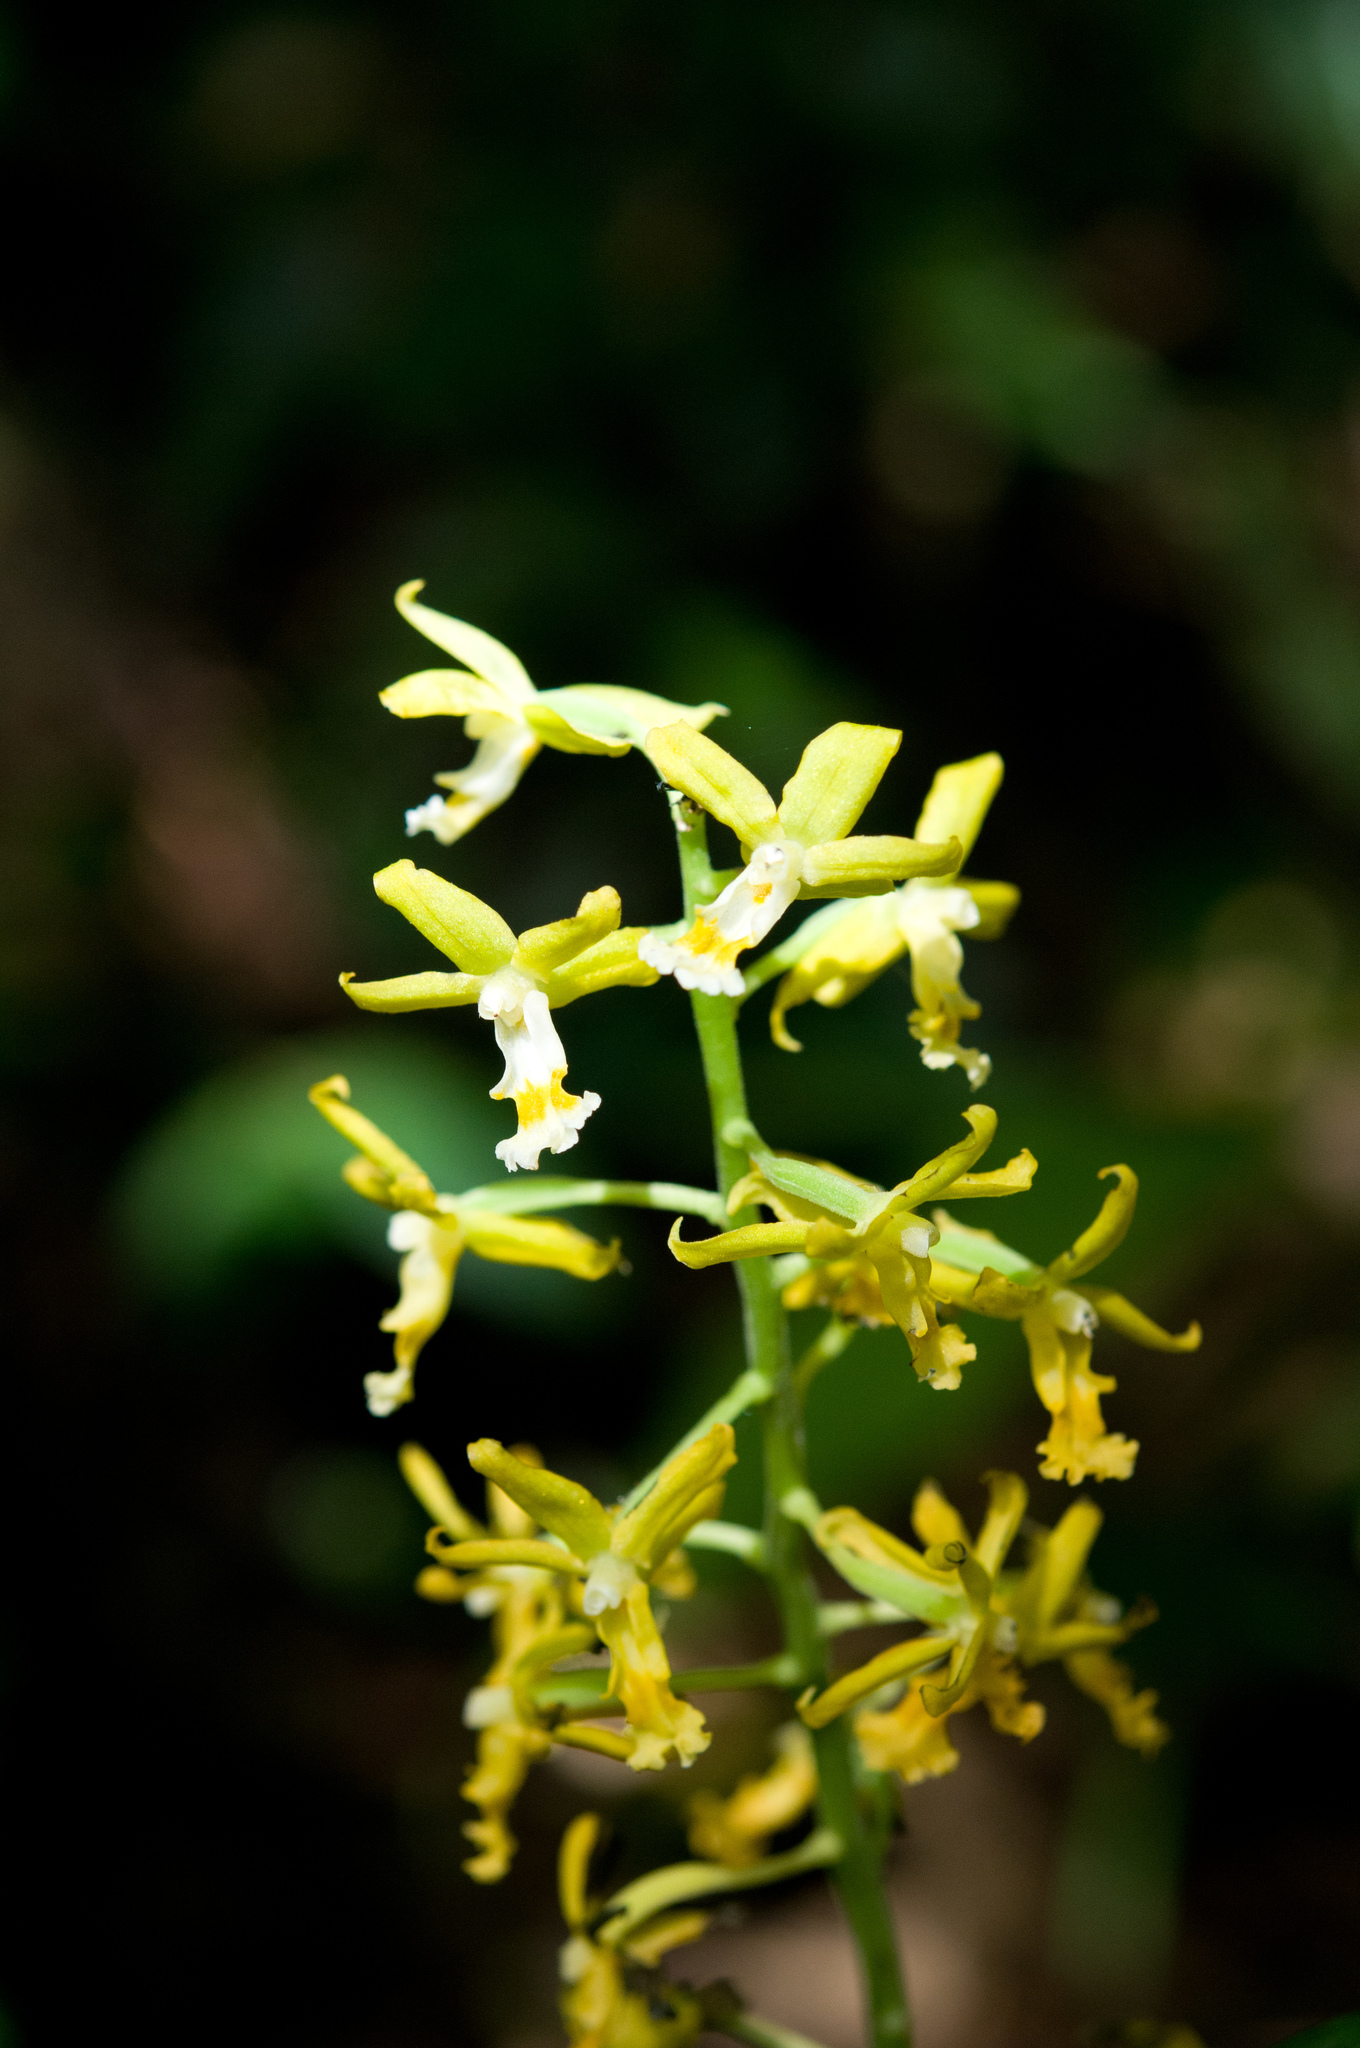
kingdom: Plantae
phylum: Tracheophyta
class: Liliopsida
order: Asparagales
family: Orchidaceae
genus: Calanthe
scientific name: Calanthe obcordata
